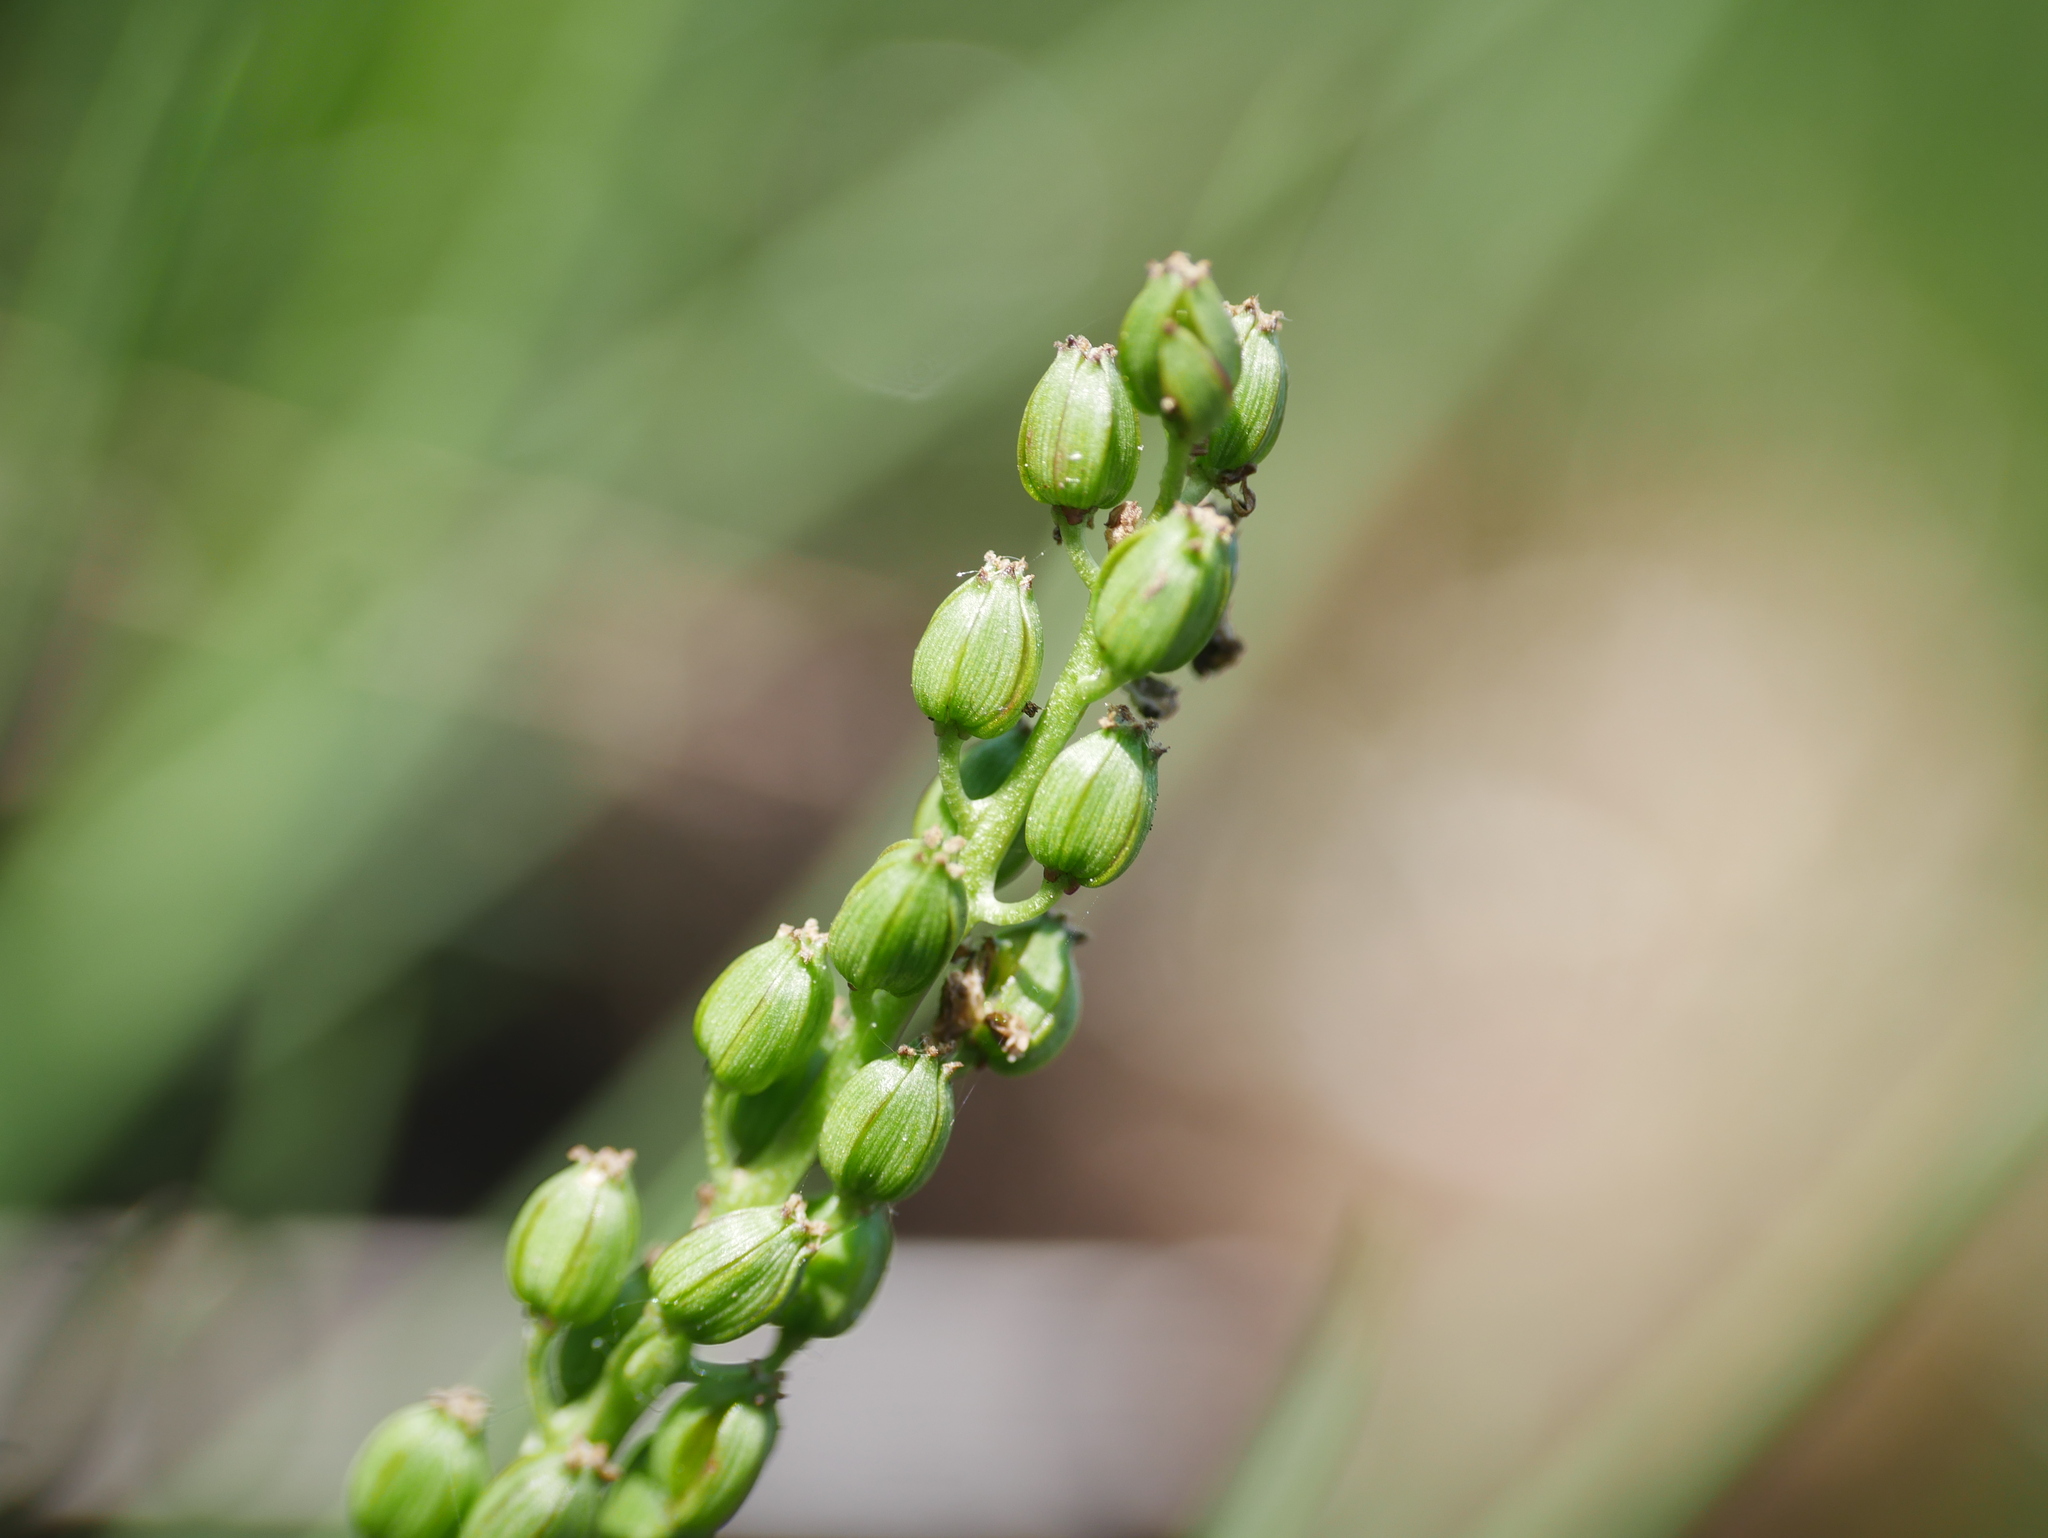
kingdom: Plantae
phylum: Tracheophyta
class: Liliopsida
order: Alismatales
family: Juncaginaceae
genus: Triglochin
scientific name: Triglochin maritima
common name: Sea arrowgrass
